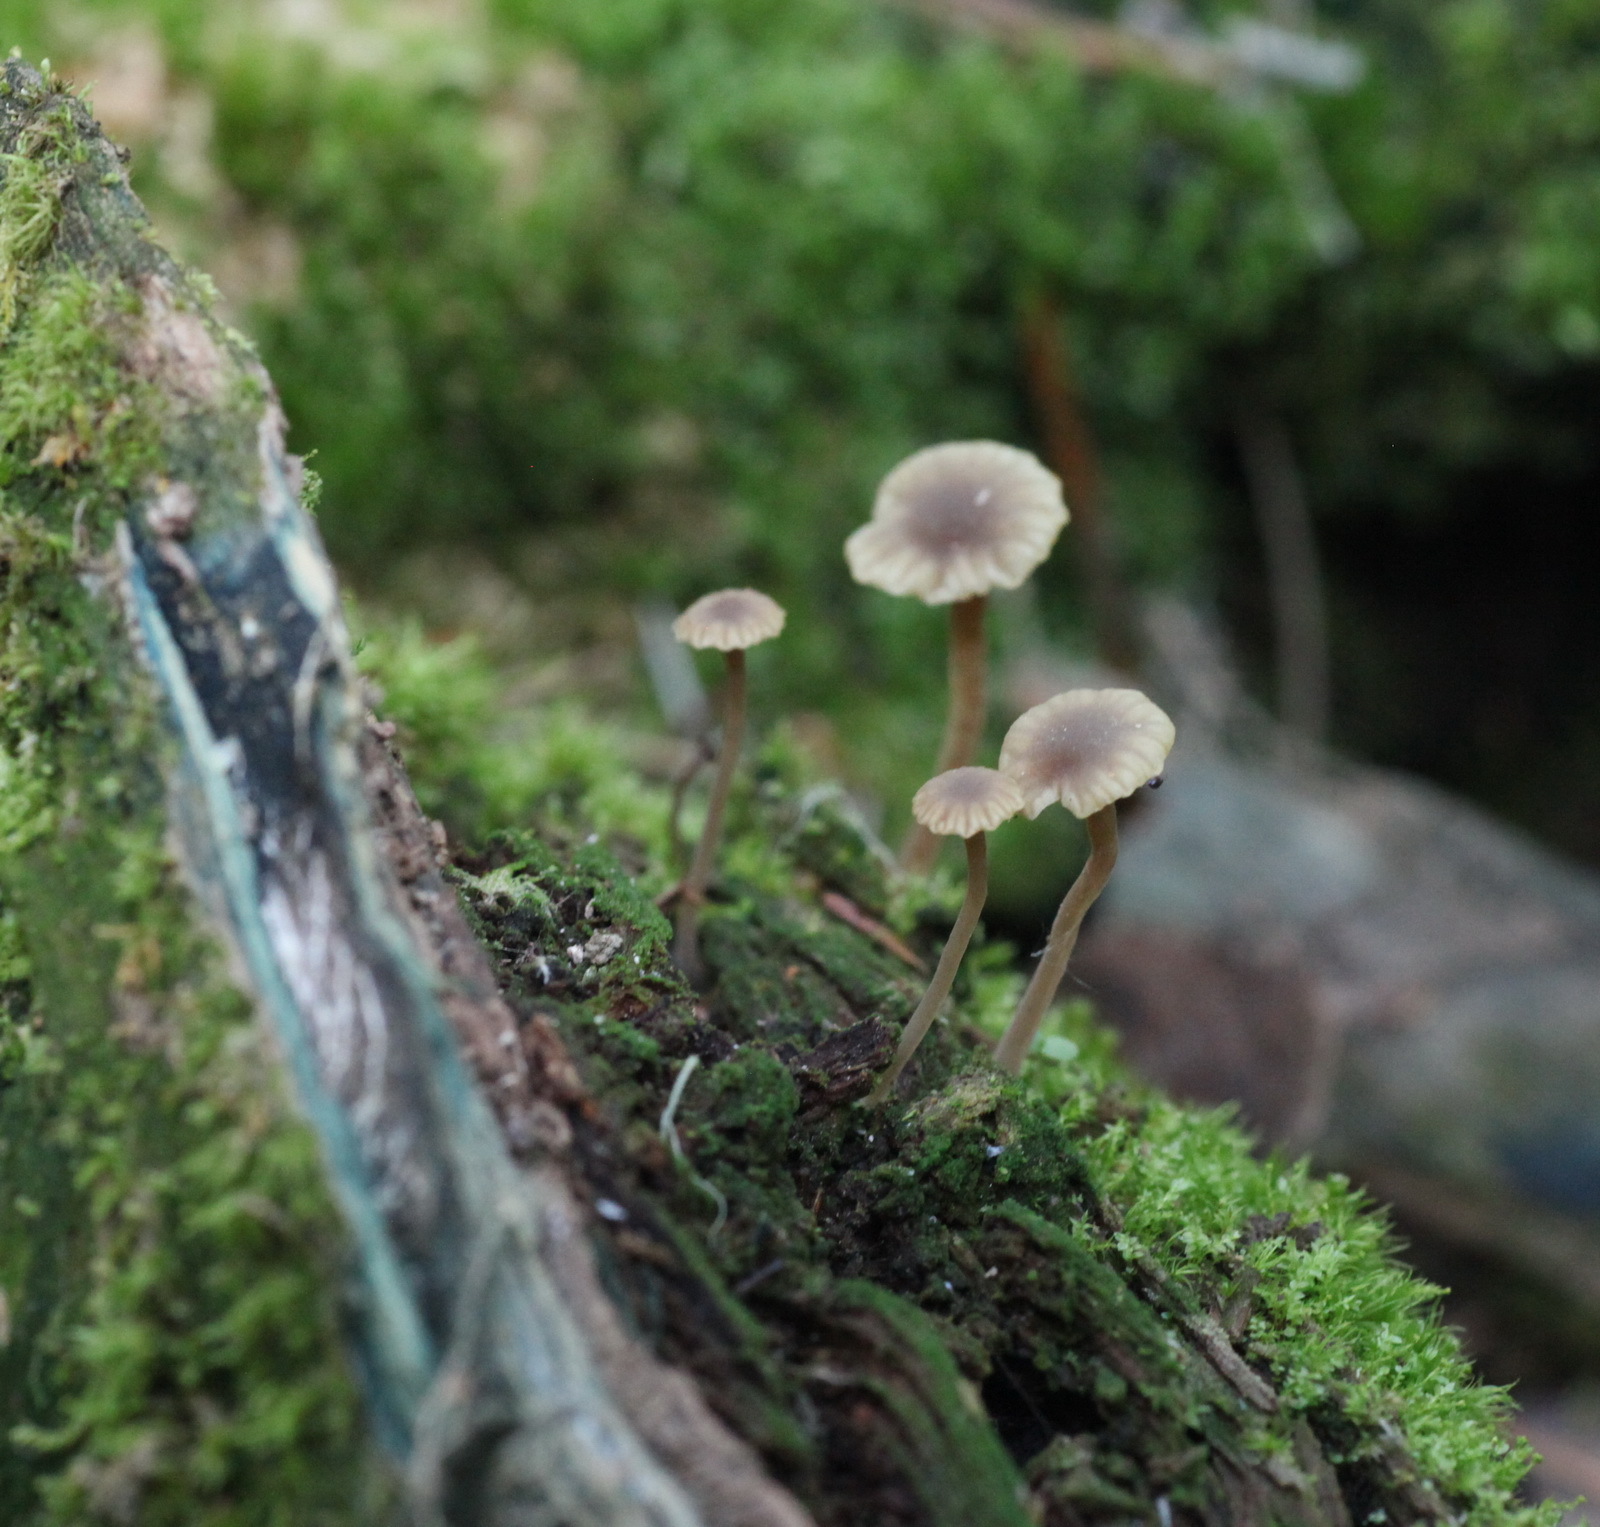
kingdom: Fungi
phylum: Basidiomycota
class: Agaricomycetes
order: Agaricales
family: Hygrophoraceae
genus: Lichenomphalia
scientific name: Lichenomphalia
